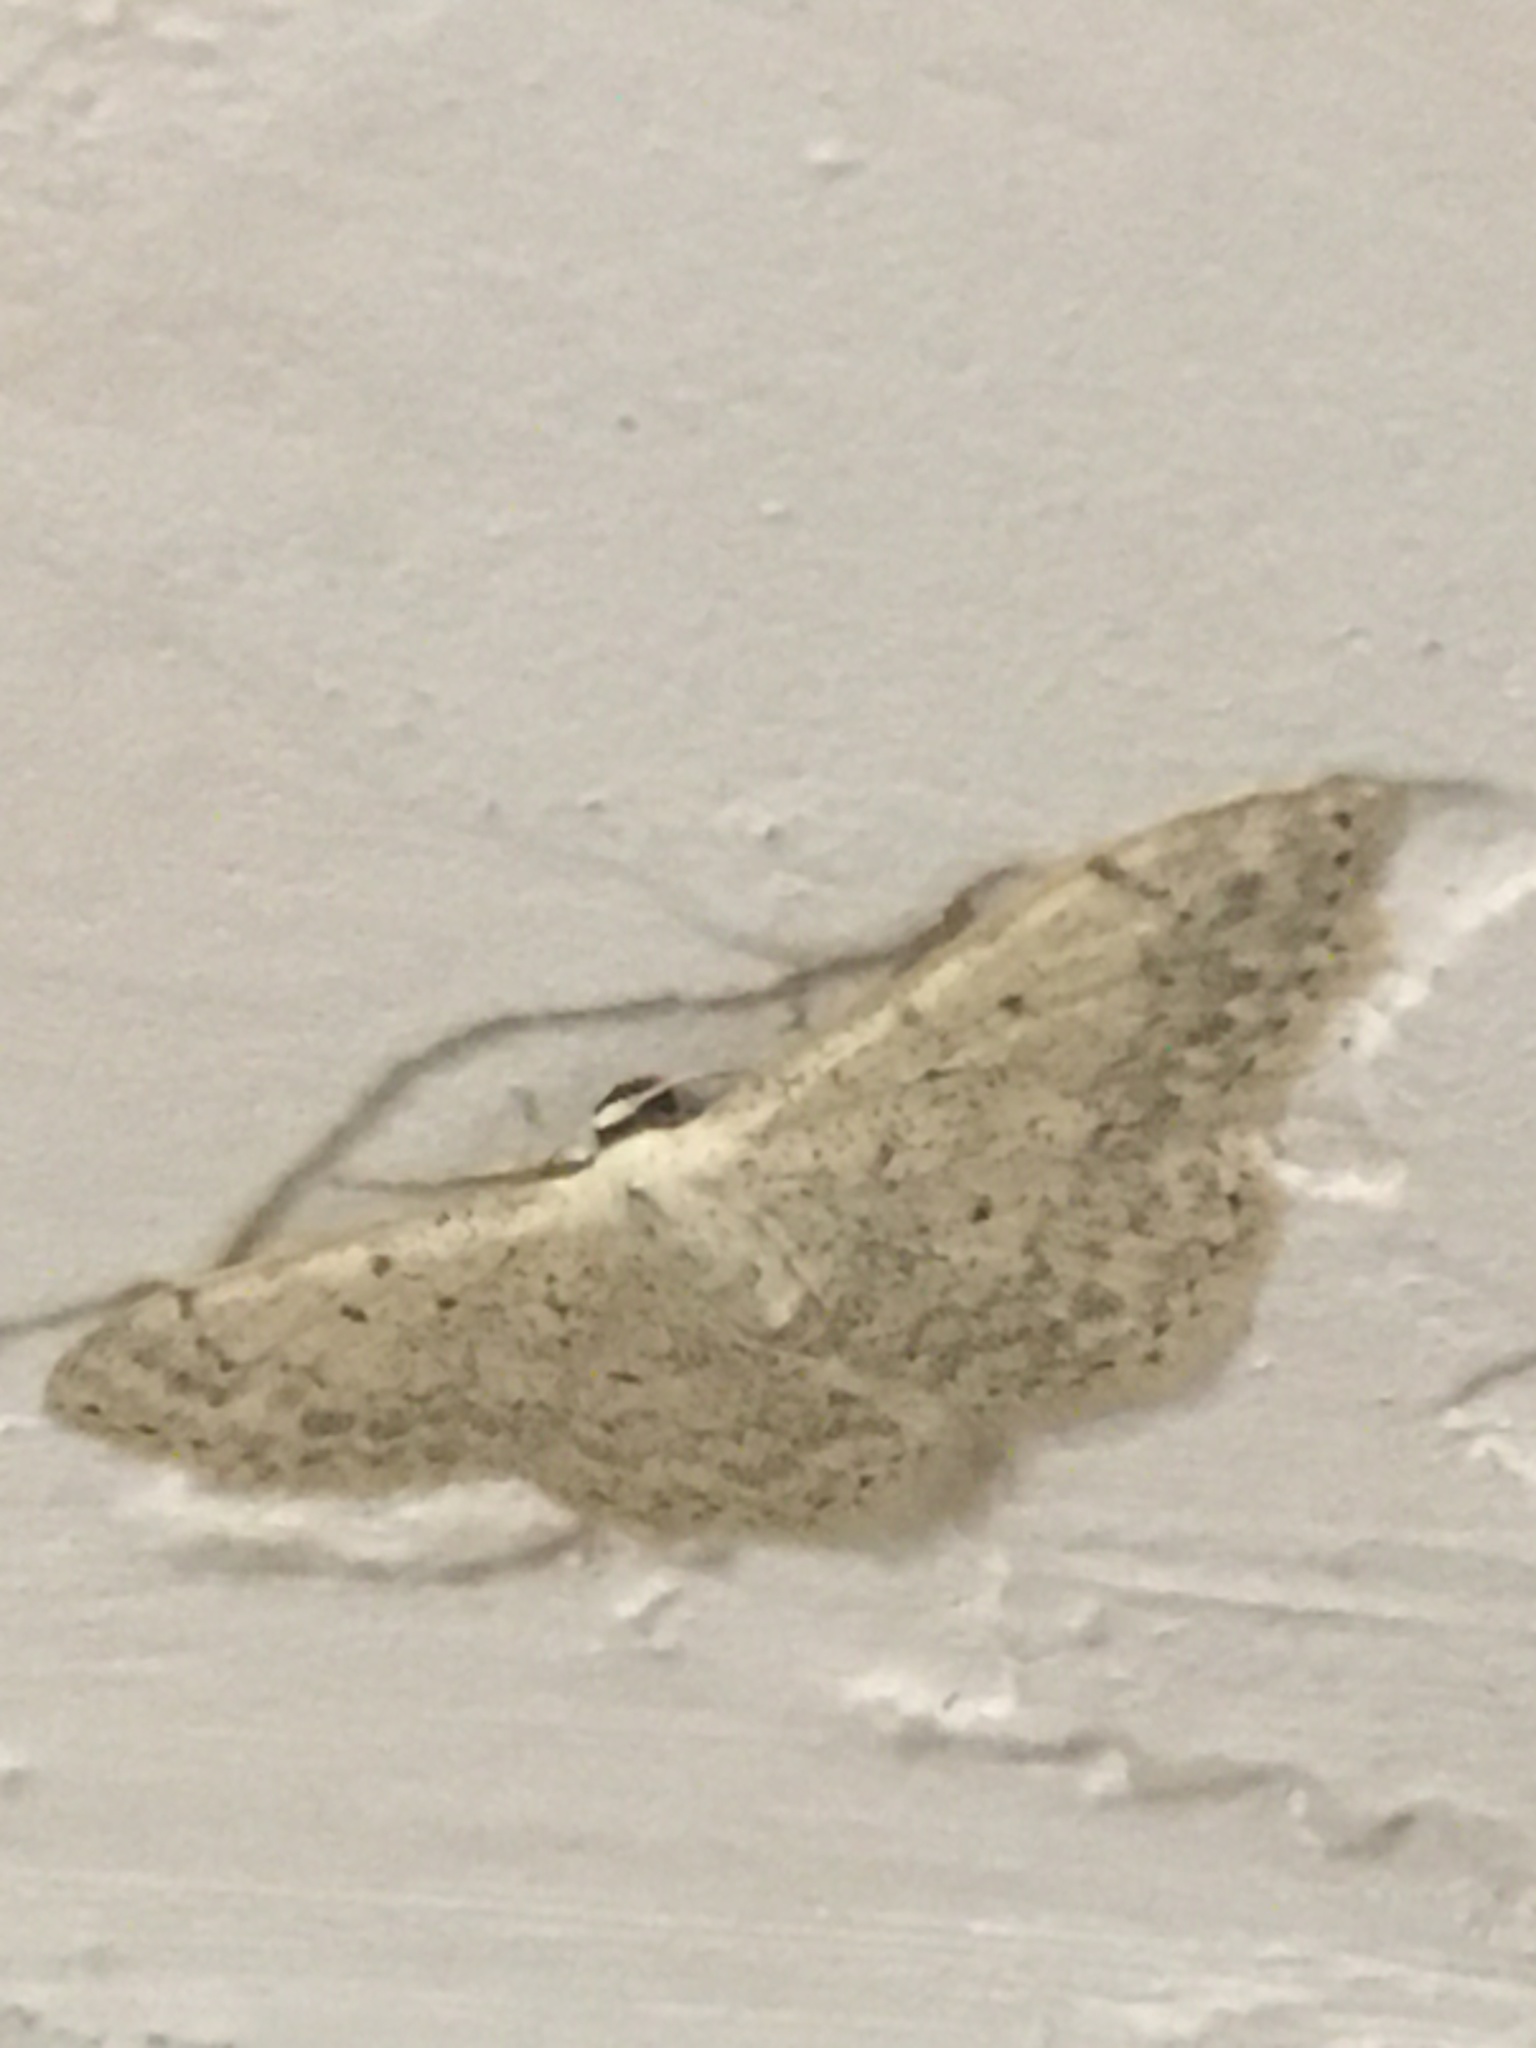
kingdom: Animalia
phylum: Arthropoda
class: Insecta
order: Lepidoptera
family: Geometridae
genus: Scopula
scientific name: Scopula marginepunctata
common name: Mullein wave
